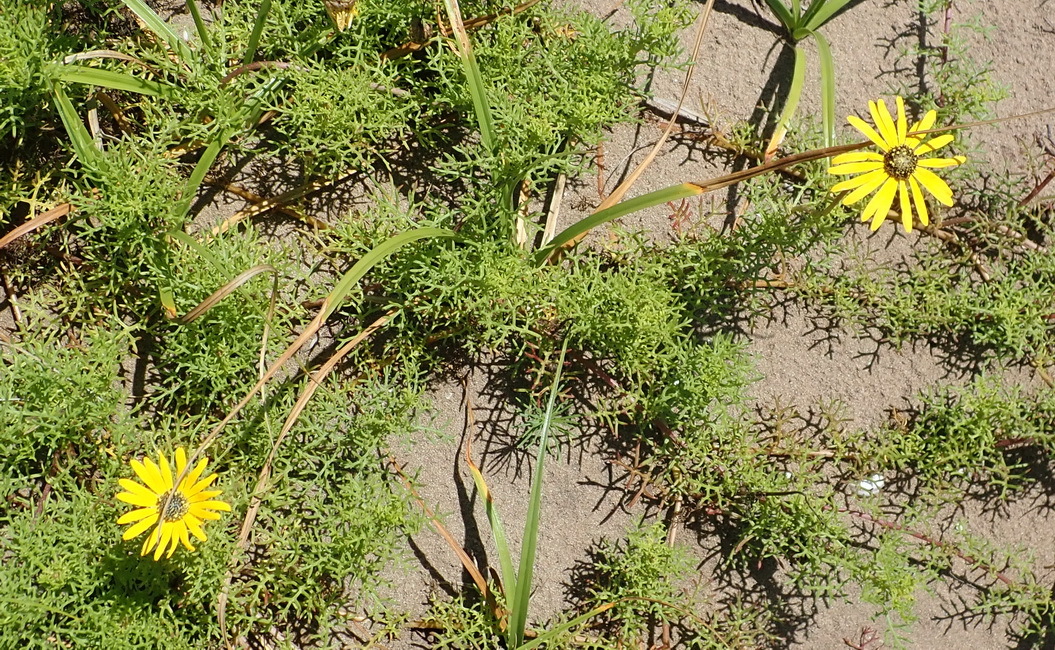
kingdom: Plantae
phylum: Tracheophyta
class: Magnoliopsida
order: Asterales
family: Asteraceae
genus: Ursinia
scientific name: Ursinia chrysanthemoides
